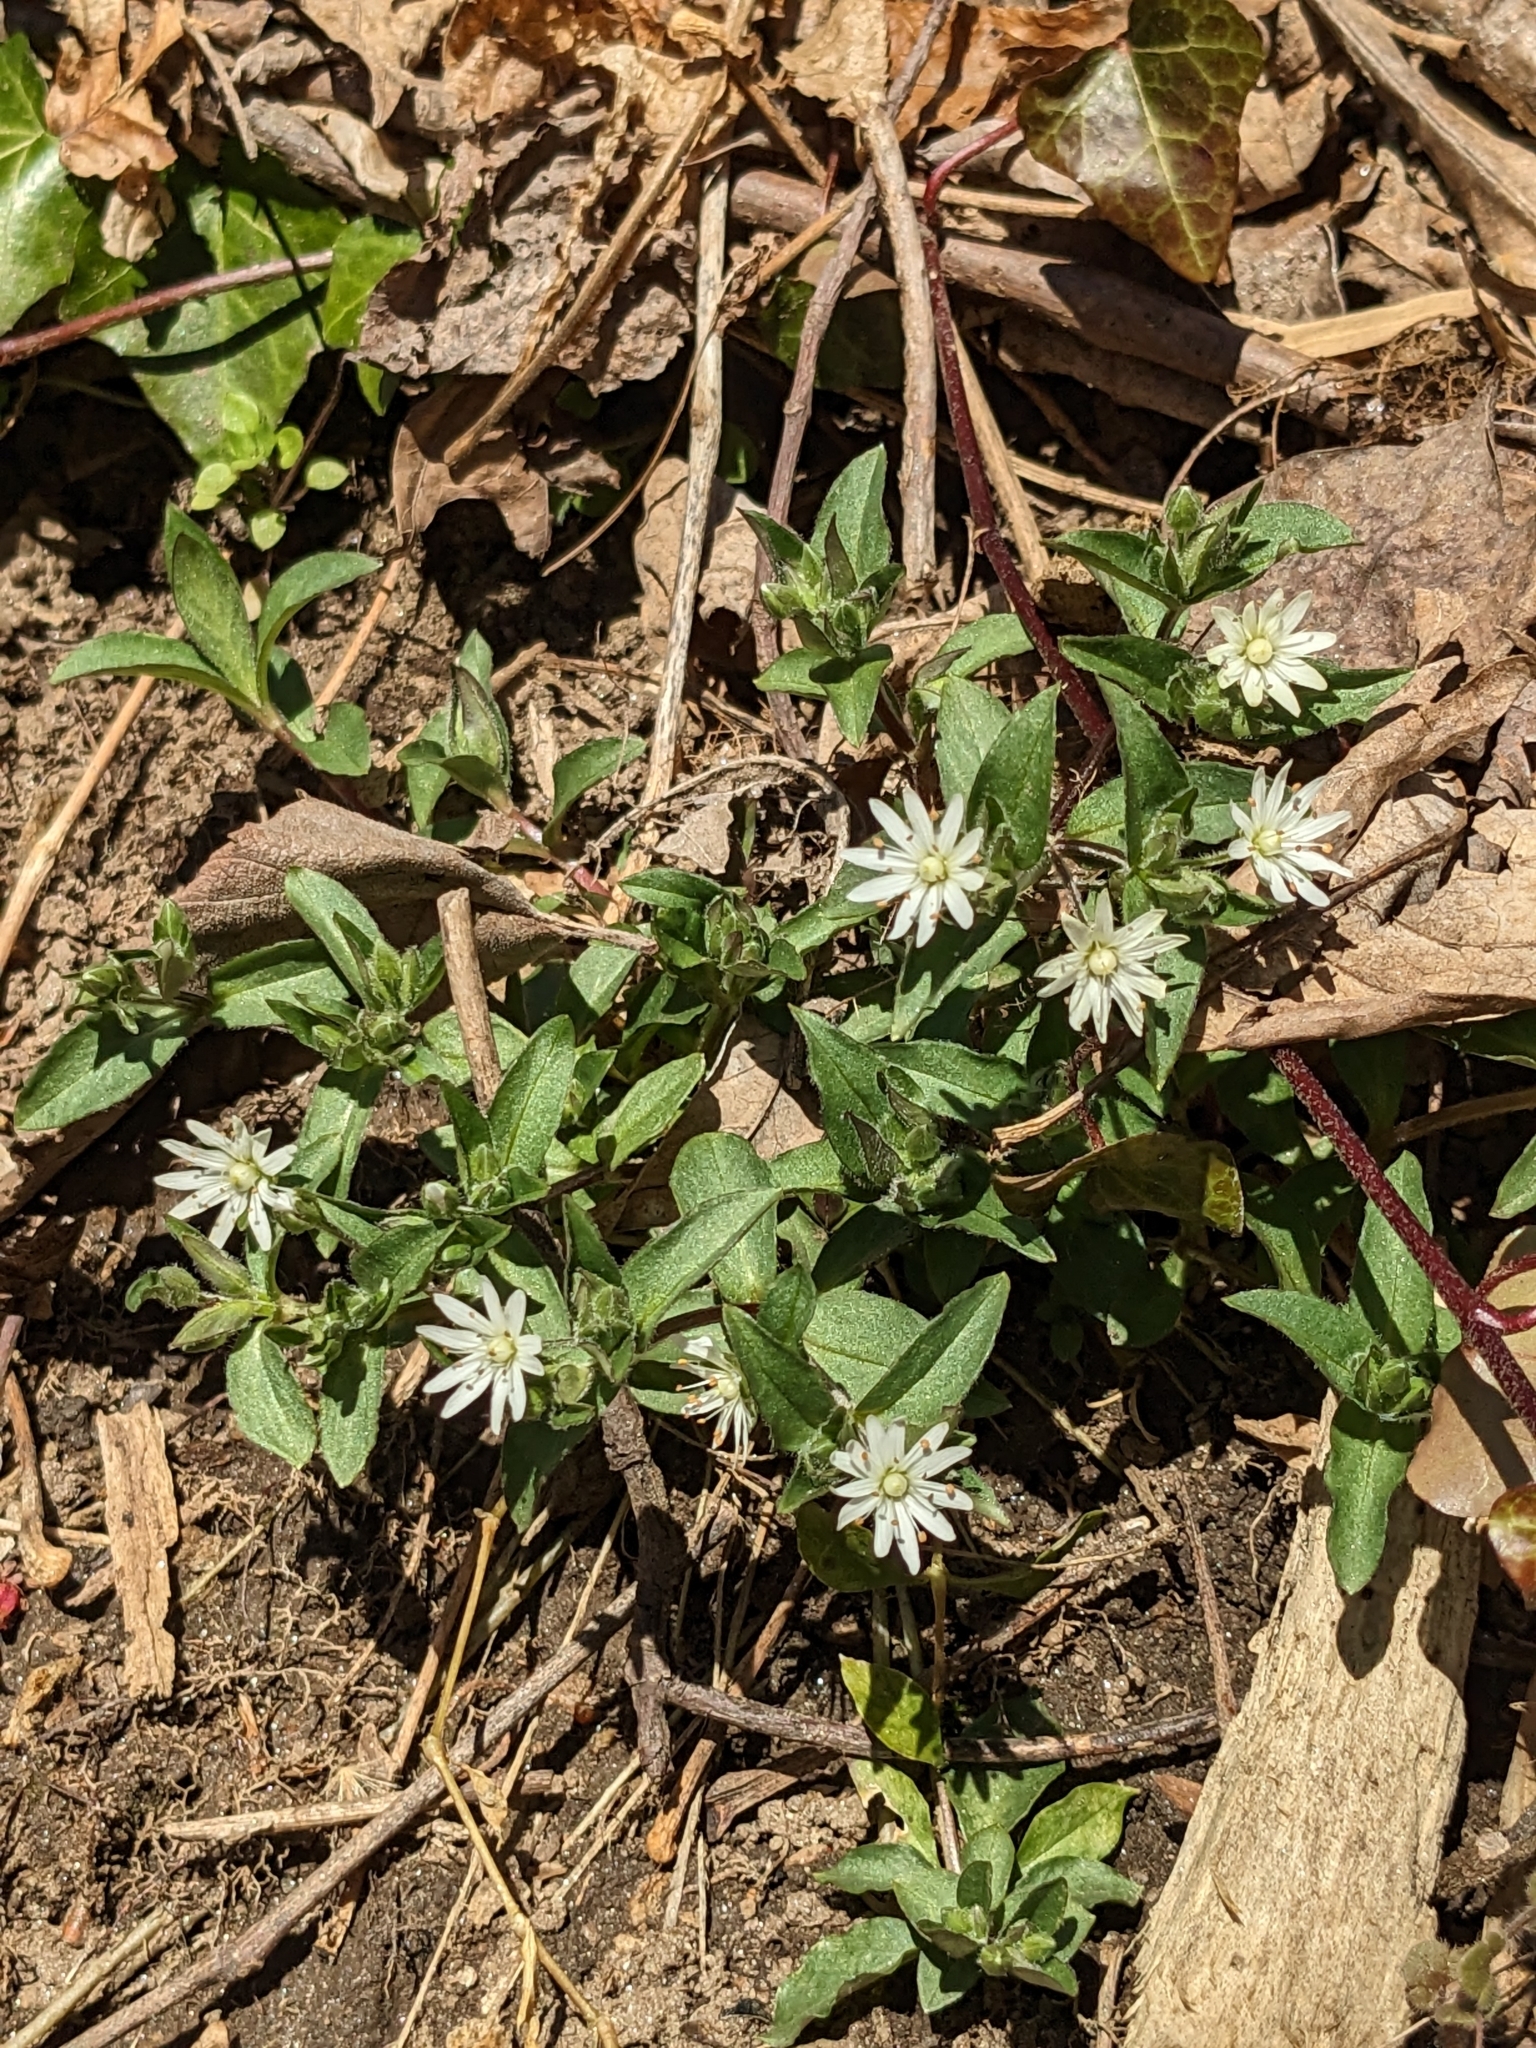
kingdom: Plantae
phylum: Tracheophyta
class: Magnoliopsida
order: Caryophyllales
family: Caryophyllaceae
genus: Stellaria
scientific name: Stellaria pubera
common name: Star chickweed
